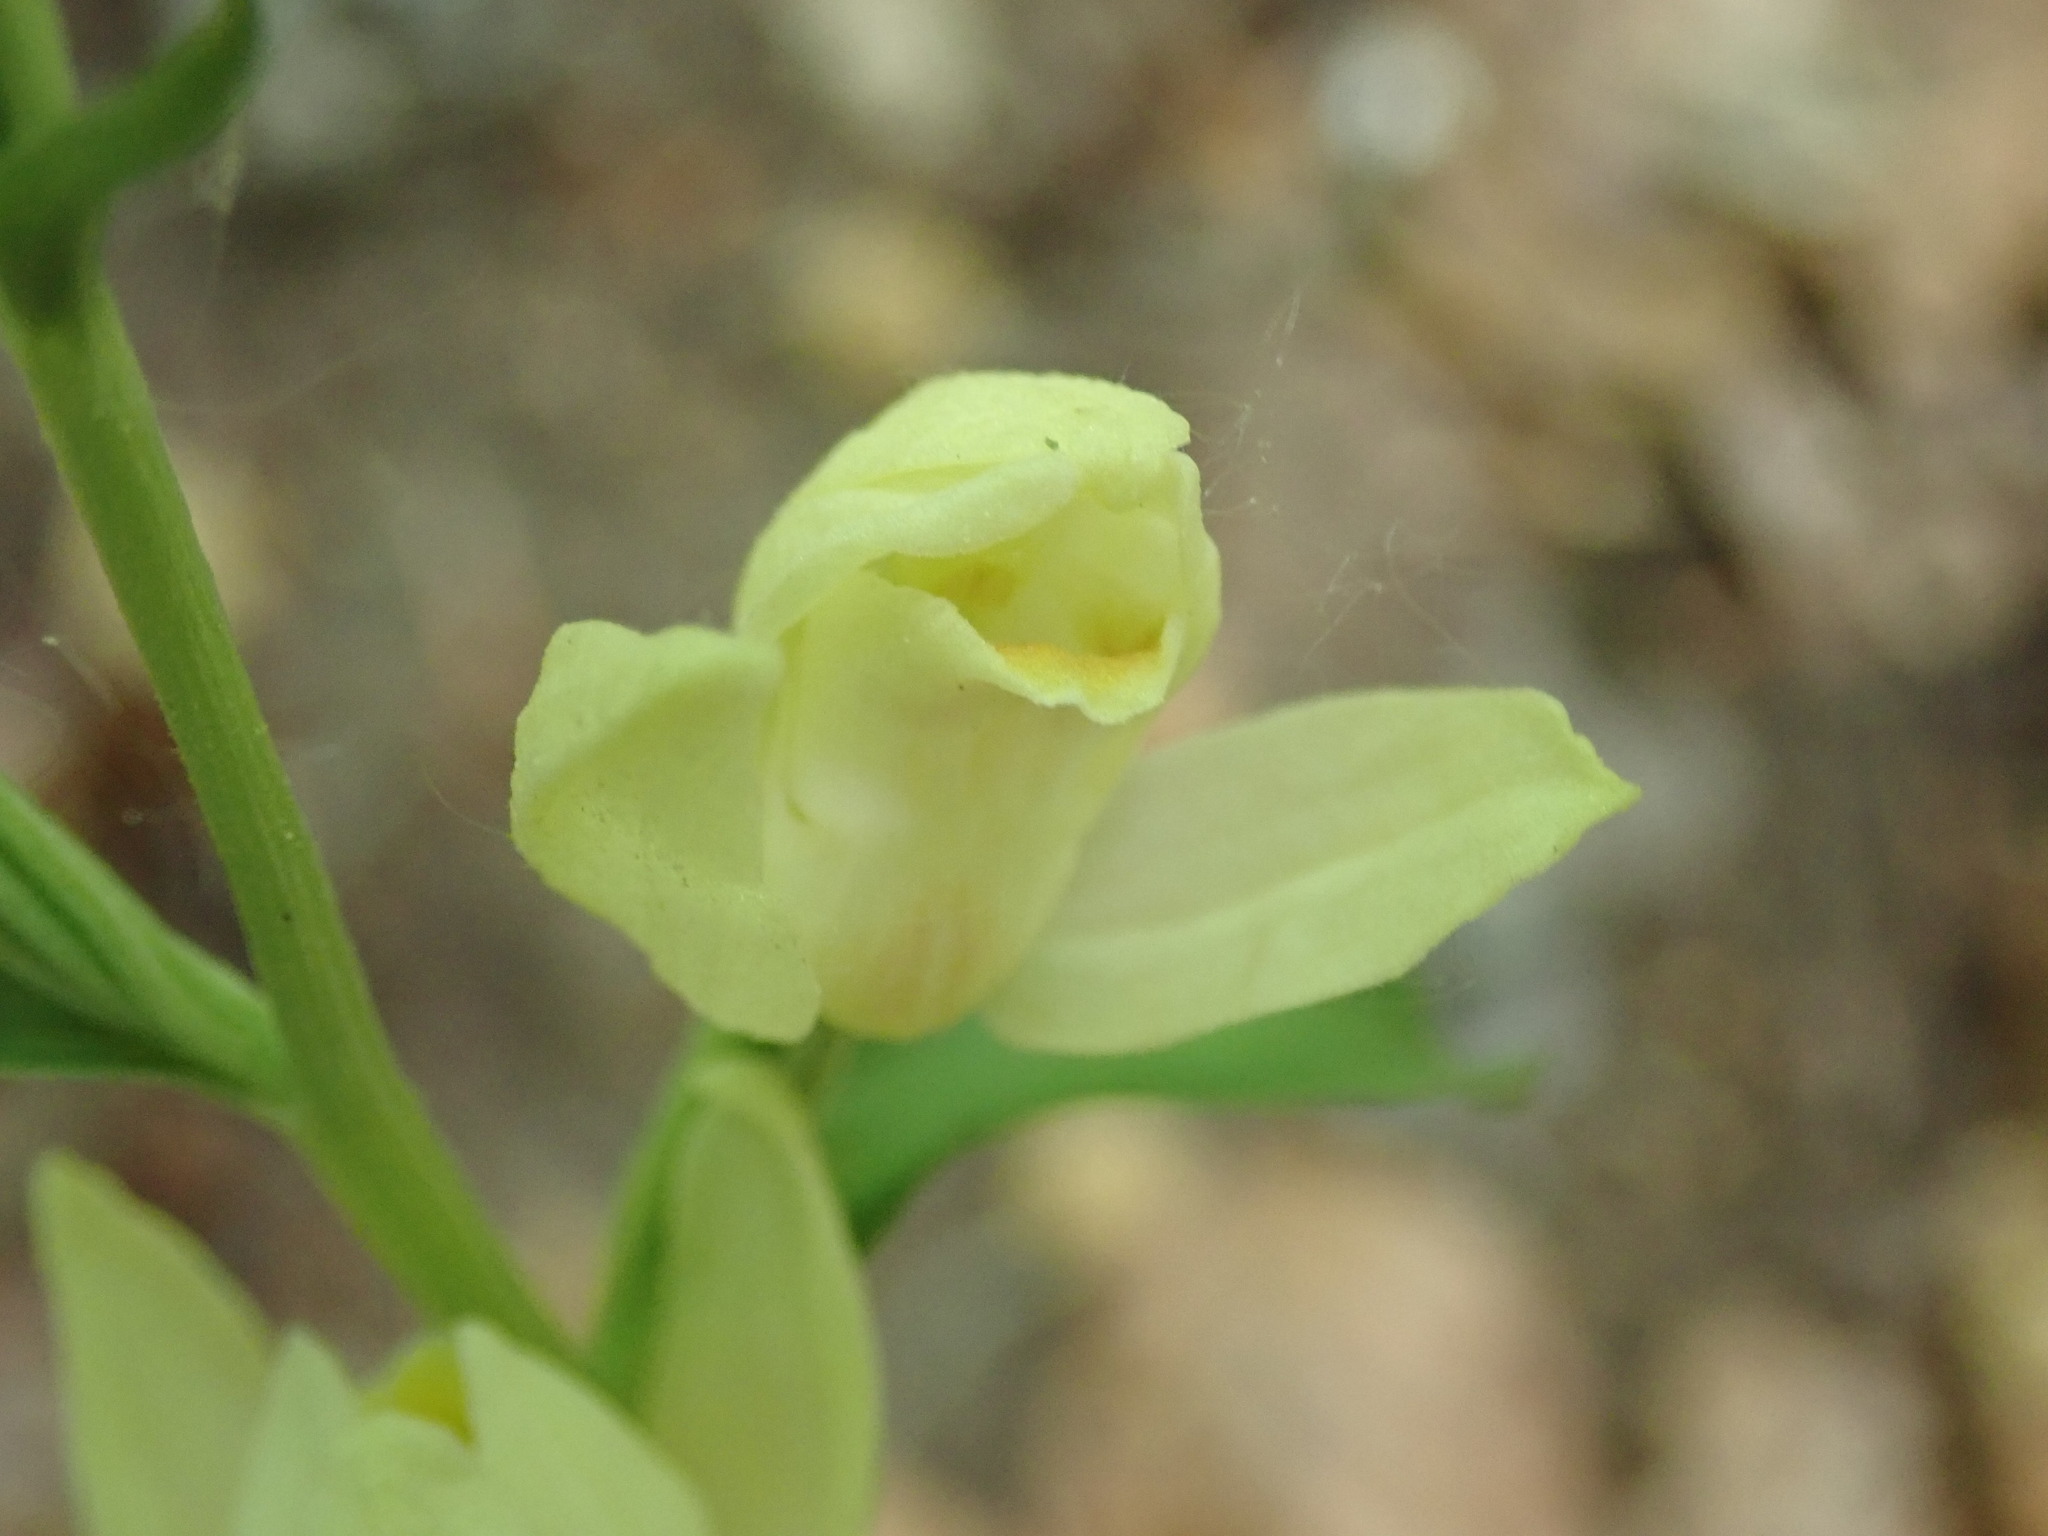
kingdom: Plantae
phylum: Tracheophyta
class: Liliopsida
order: Asparagales
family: Orchidaceae
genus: Cephalanthera
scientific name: Cephalanthera damasonium
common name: White helleborine
